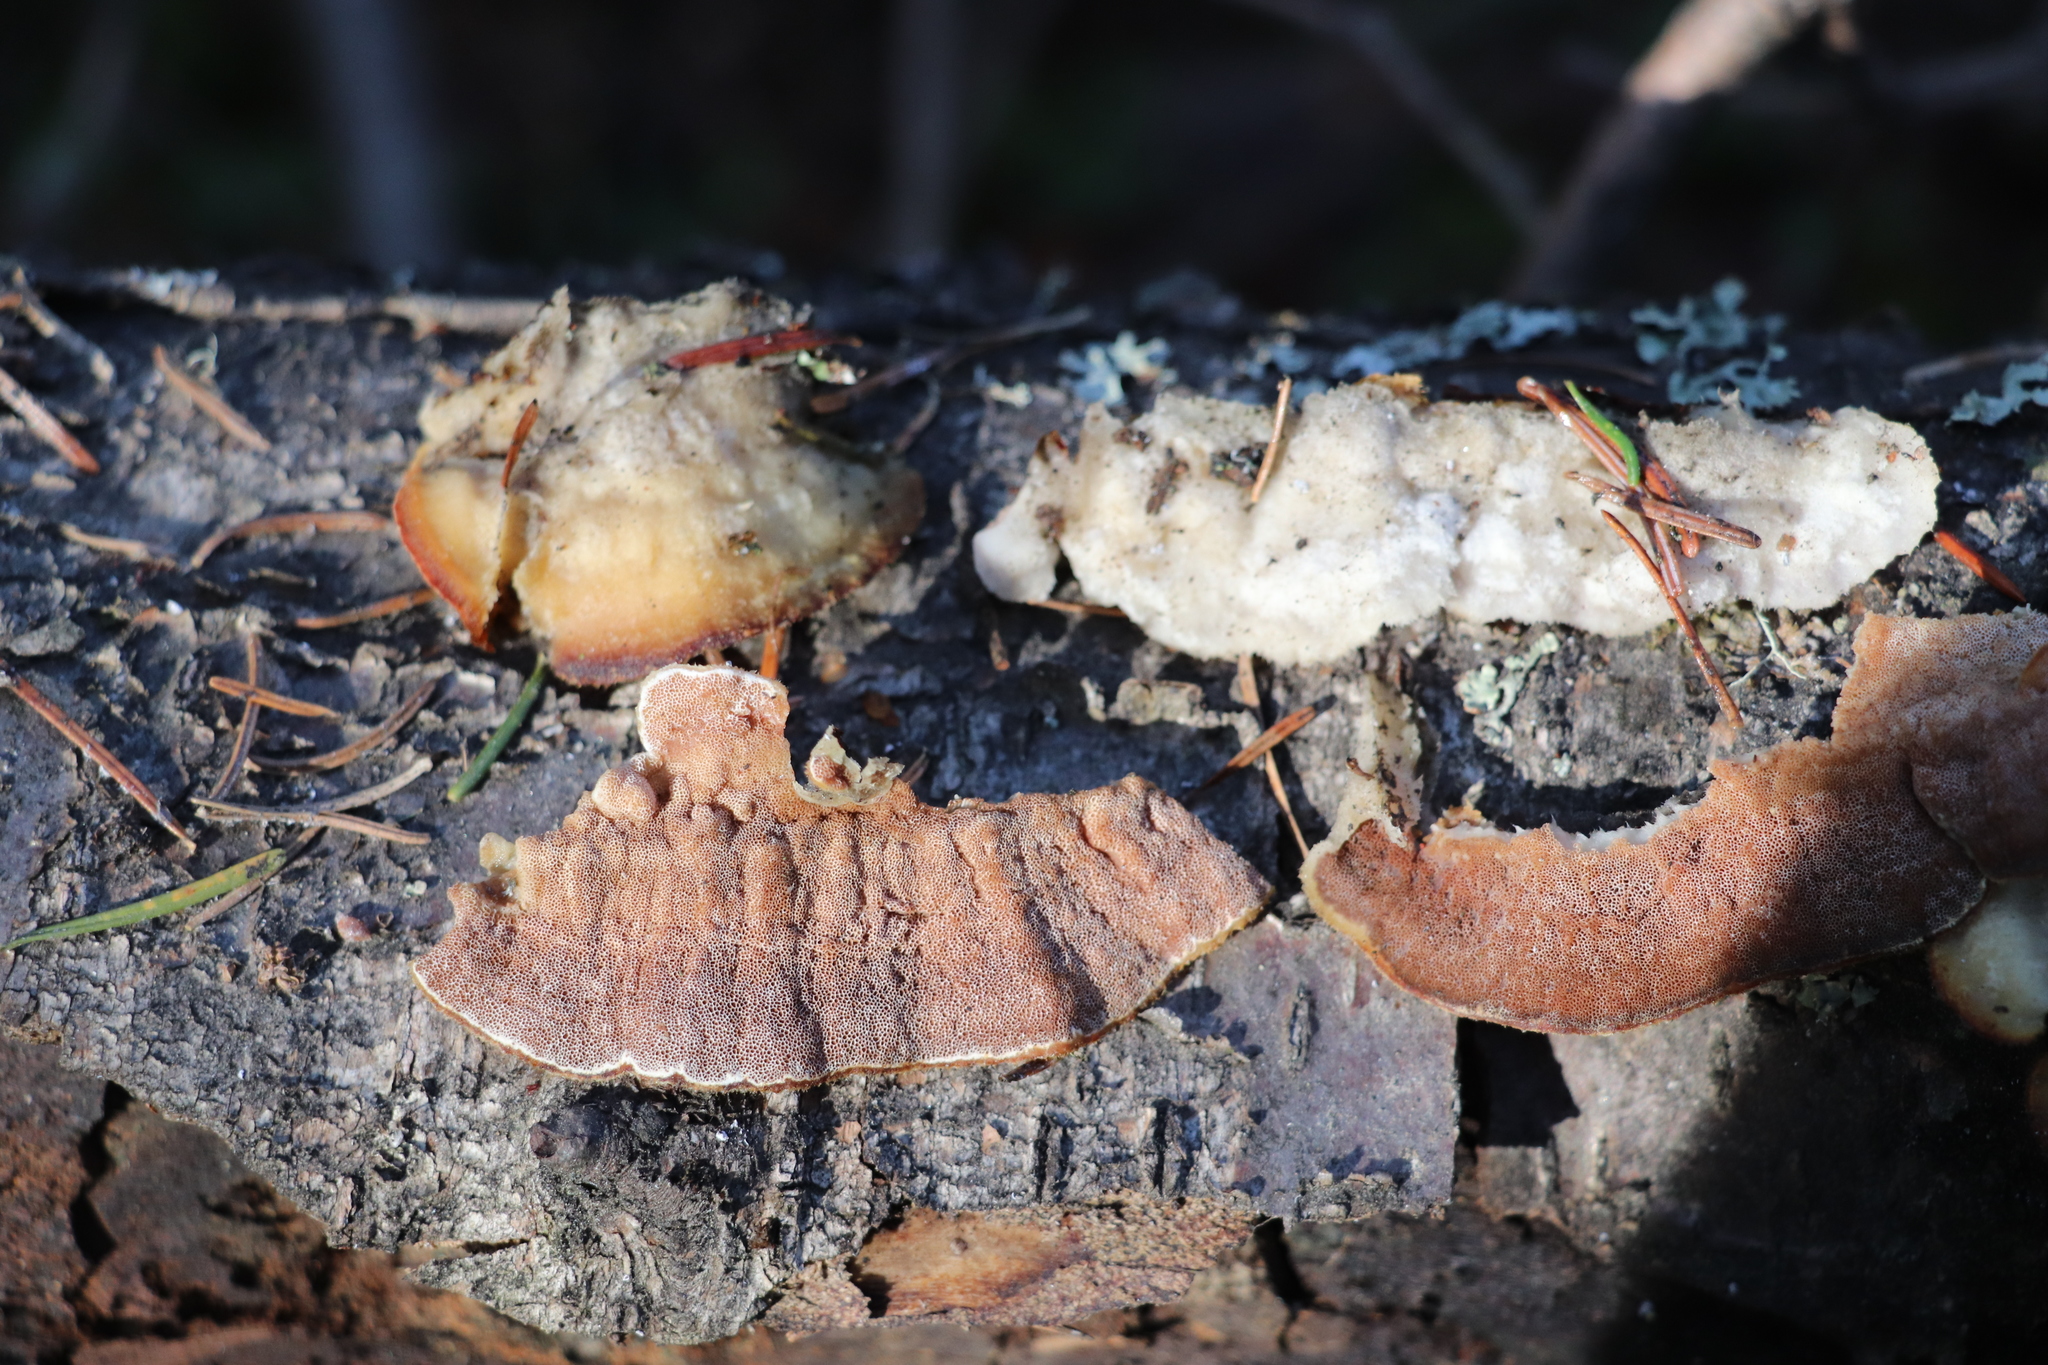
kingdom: Fungi
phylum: Basidiomycota
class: Agaricomycetes
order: Polyporales
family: Irpicaceae
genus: Vitreoporus
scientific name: Vitreoporus dichrous
